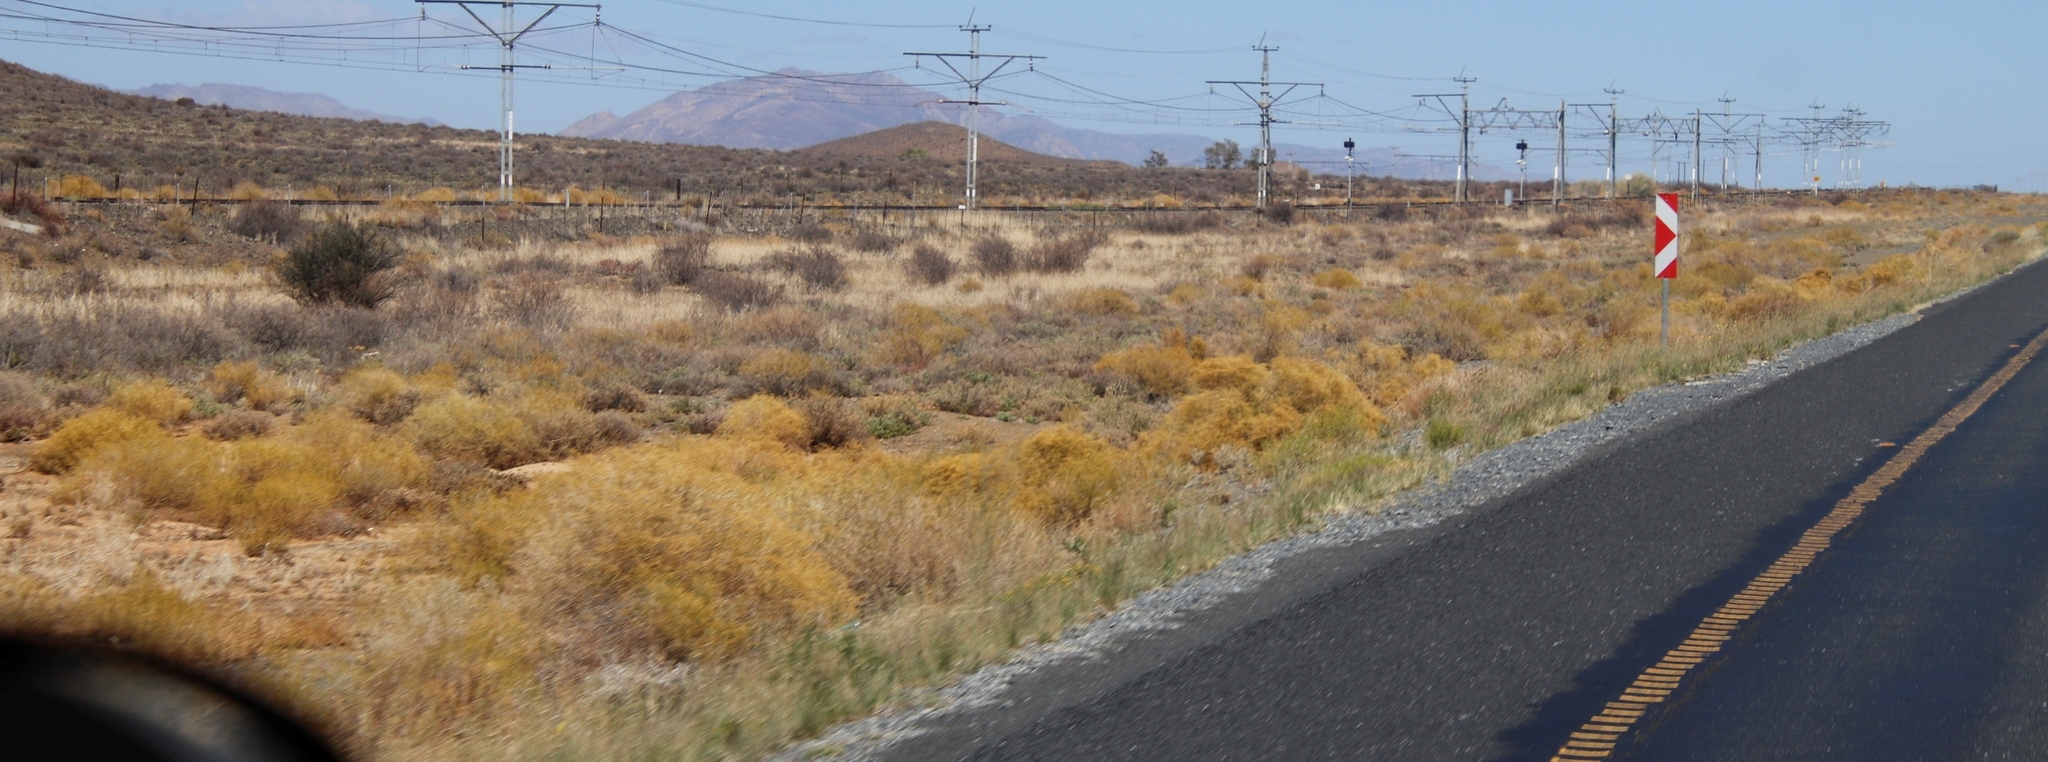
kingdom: Plantae
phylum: Tracheophyta
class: Magnoliopsida
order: Caryophyllales
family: Aizoaceae
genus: Aizoon
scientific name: Aizoon africanum
